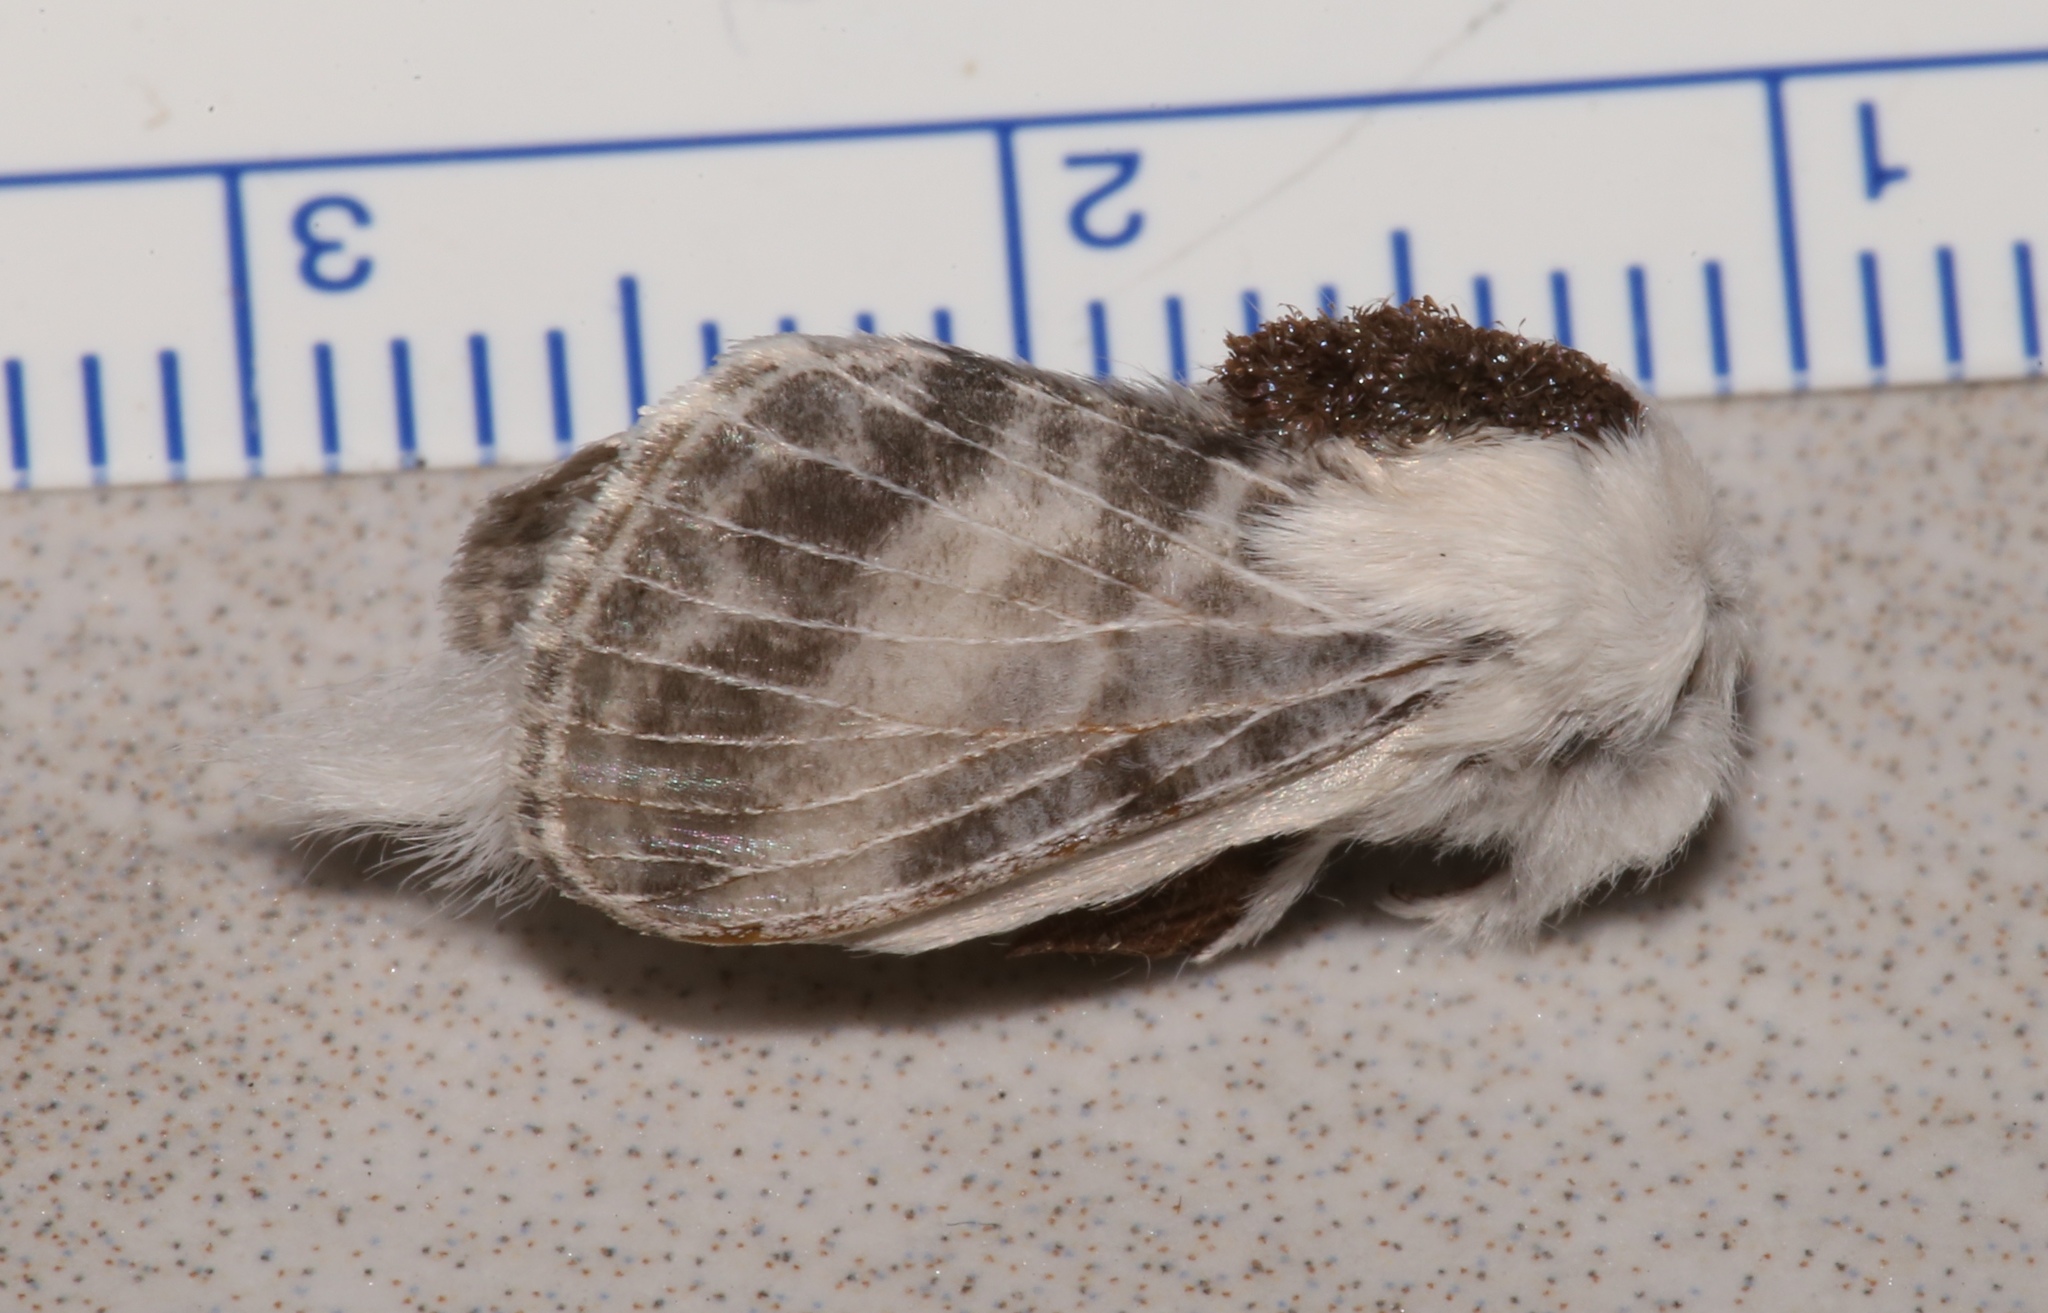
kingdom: Animalia
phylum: Arthropoda
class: Insecta
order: Lepidoptera
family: Lasiocampidae
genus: Tolype
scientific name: Tolype minta
